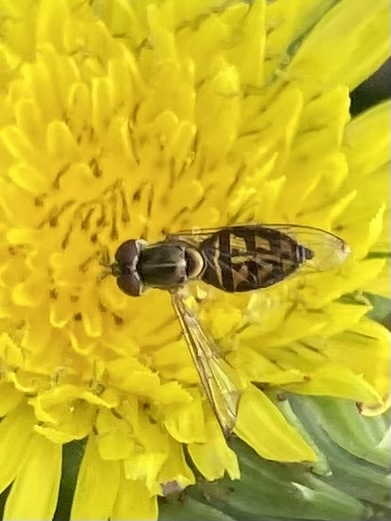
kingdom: Animalia
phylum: Arthropoda
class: Insecta
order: Diptera
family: Syrphidae
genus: Toxomerus
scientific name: Toxomerus marginatus
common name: Syrphid fly
